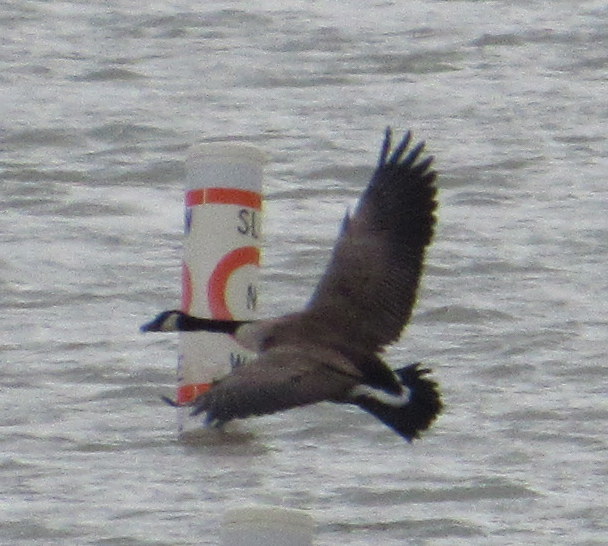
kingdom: Animalia
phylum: Chordata
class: Aves
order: Anseriformes
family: Anatidae
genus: Branta
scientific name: Branta canadensis
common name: Canada goose
